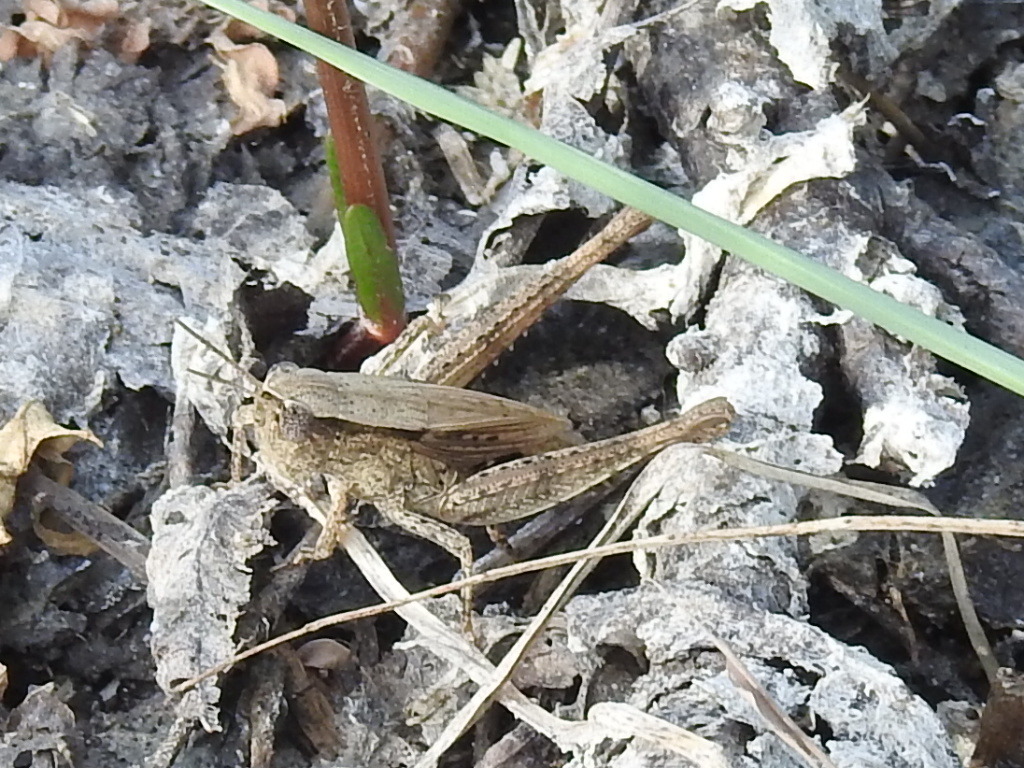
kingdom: Animalia
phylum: Arthropoda
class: Insecta
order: Orthoptera
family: Acrididae
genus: Dichromorpha
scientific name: Dichromorpha viridis
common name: Short-winged green grasshopper
